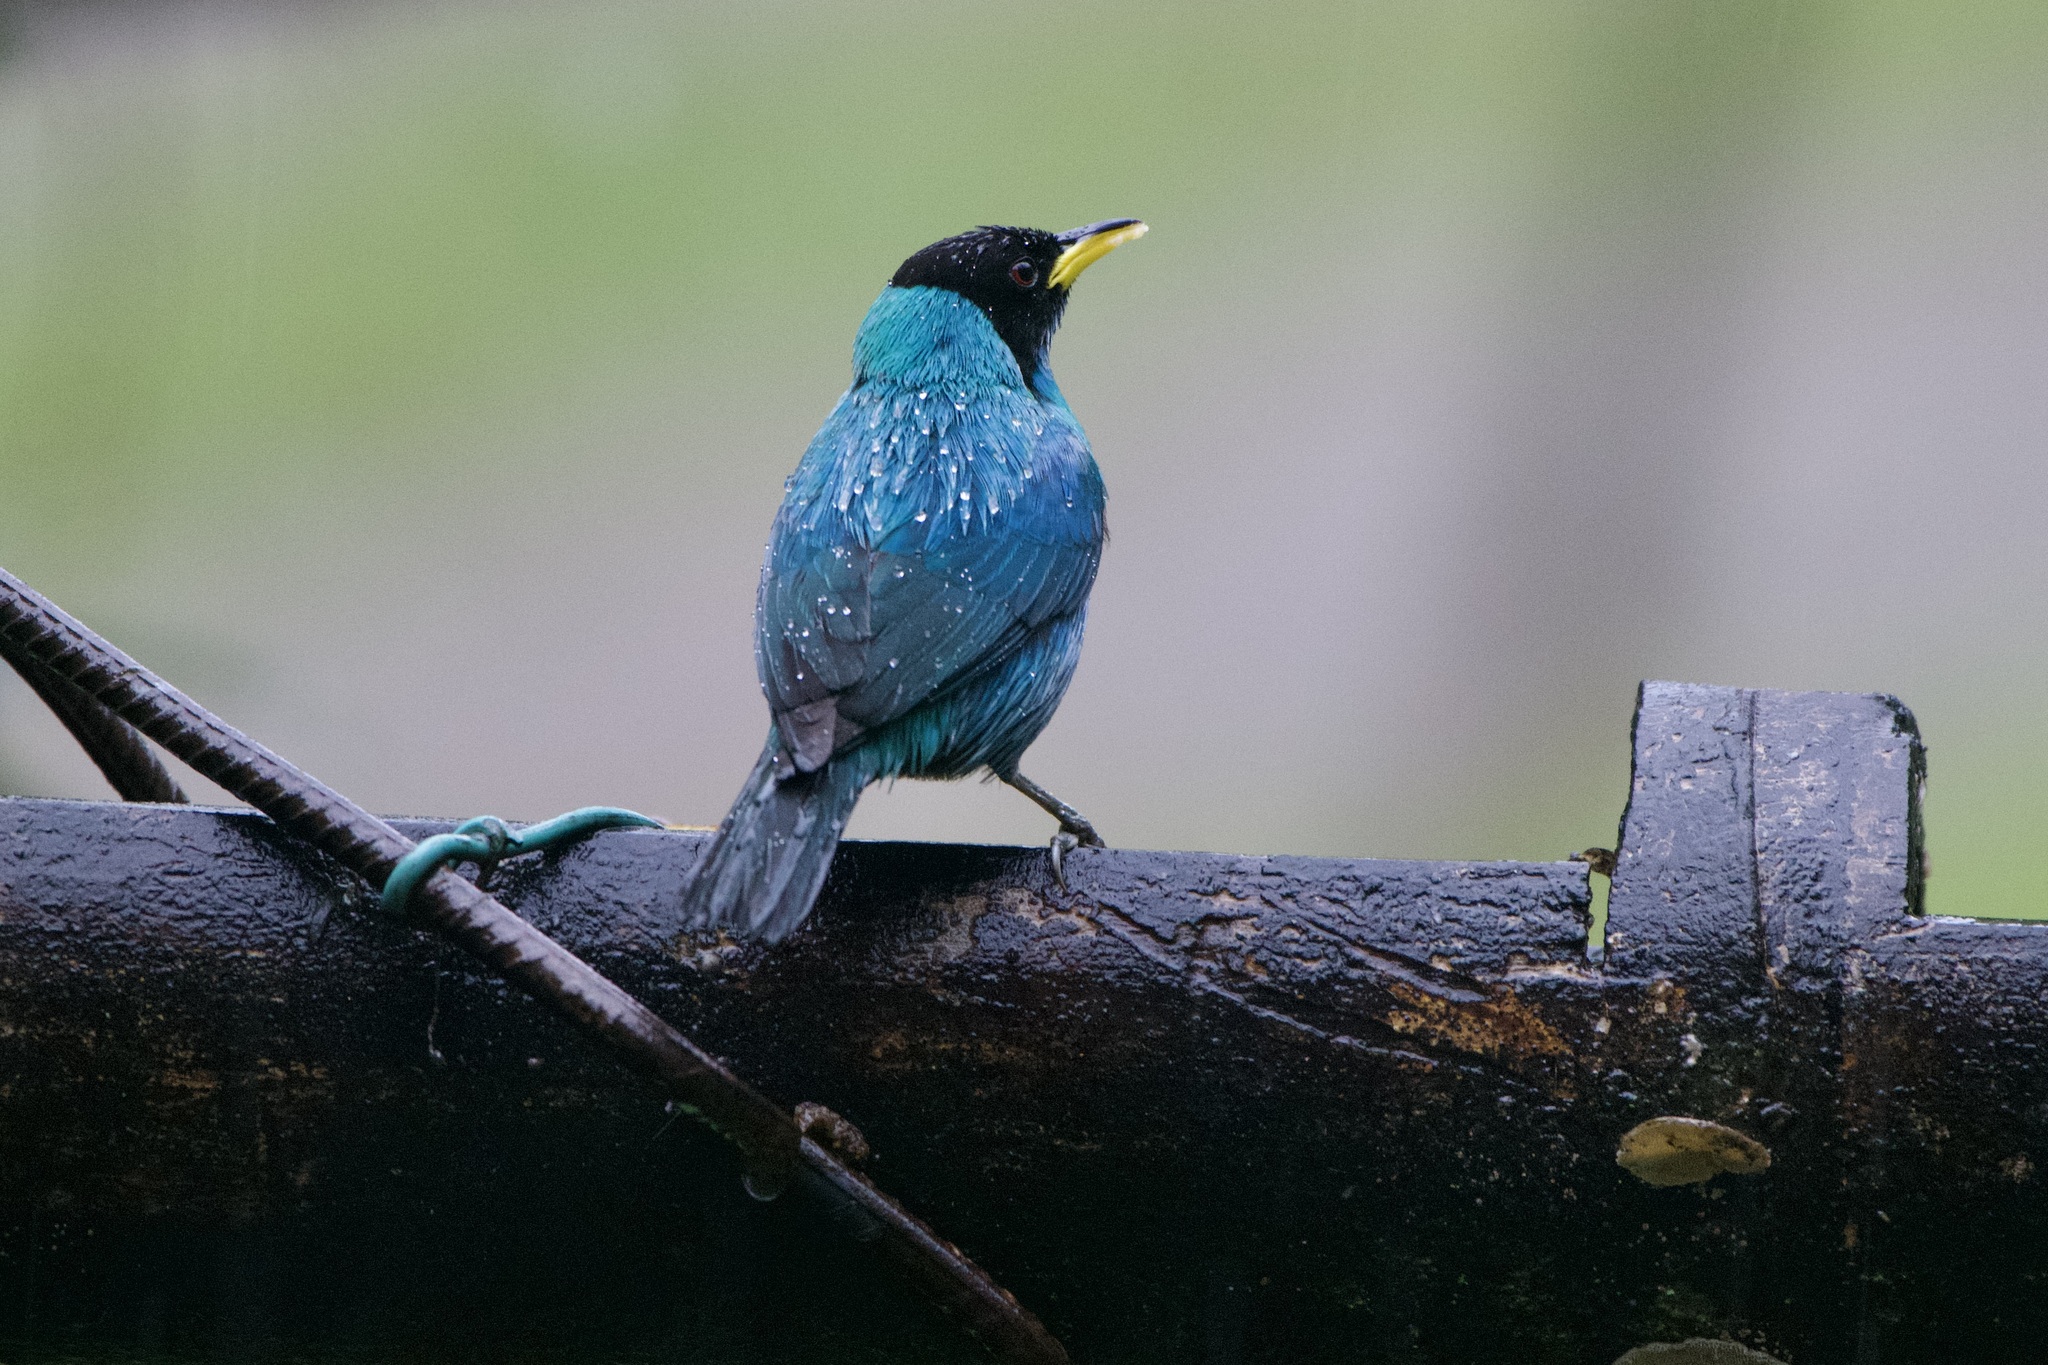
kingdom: Animalia
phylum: Chordata
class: Aves
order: Passeriformes
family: Thraupidae
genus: Chlorophanes
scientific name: Chlorophanes spiza
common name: Green honeycreeper
